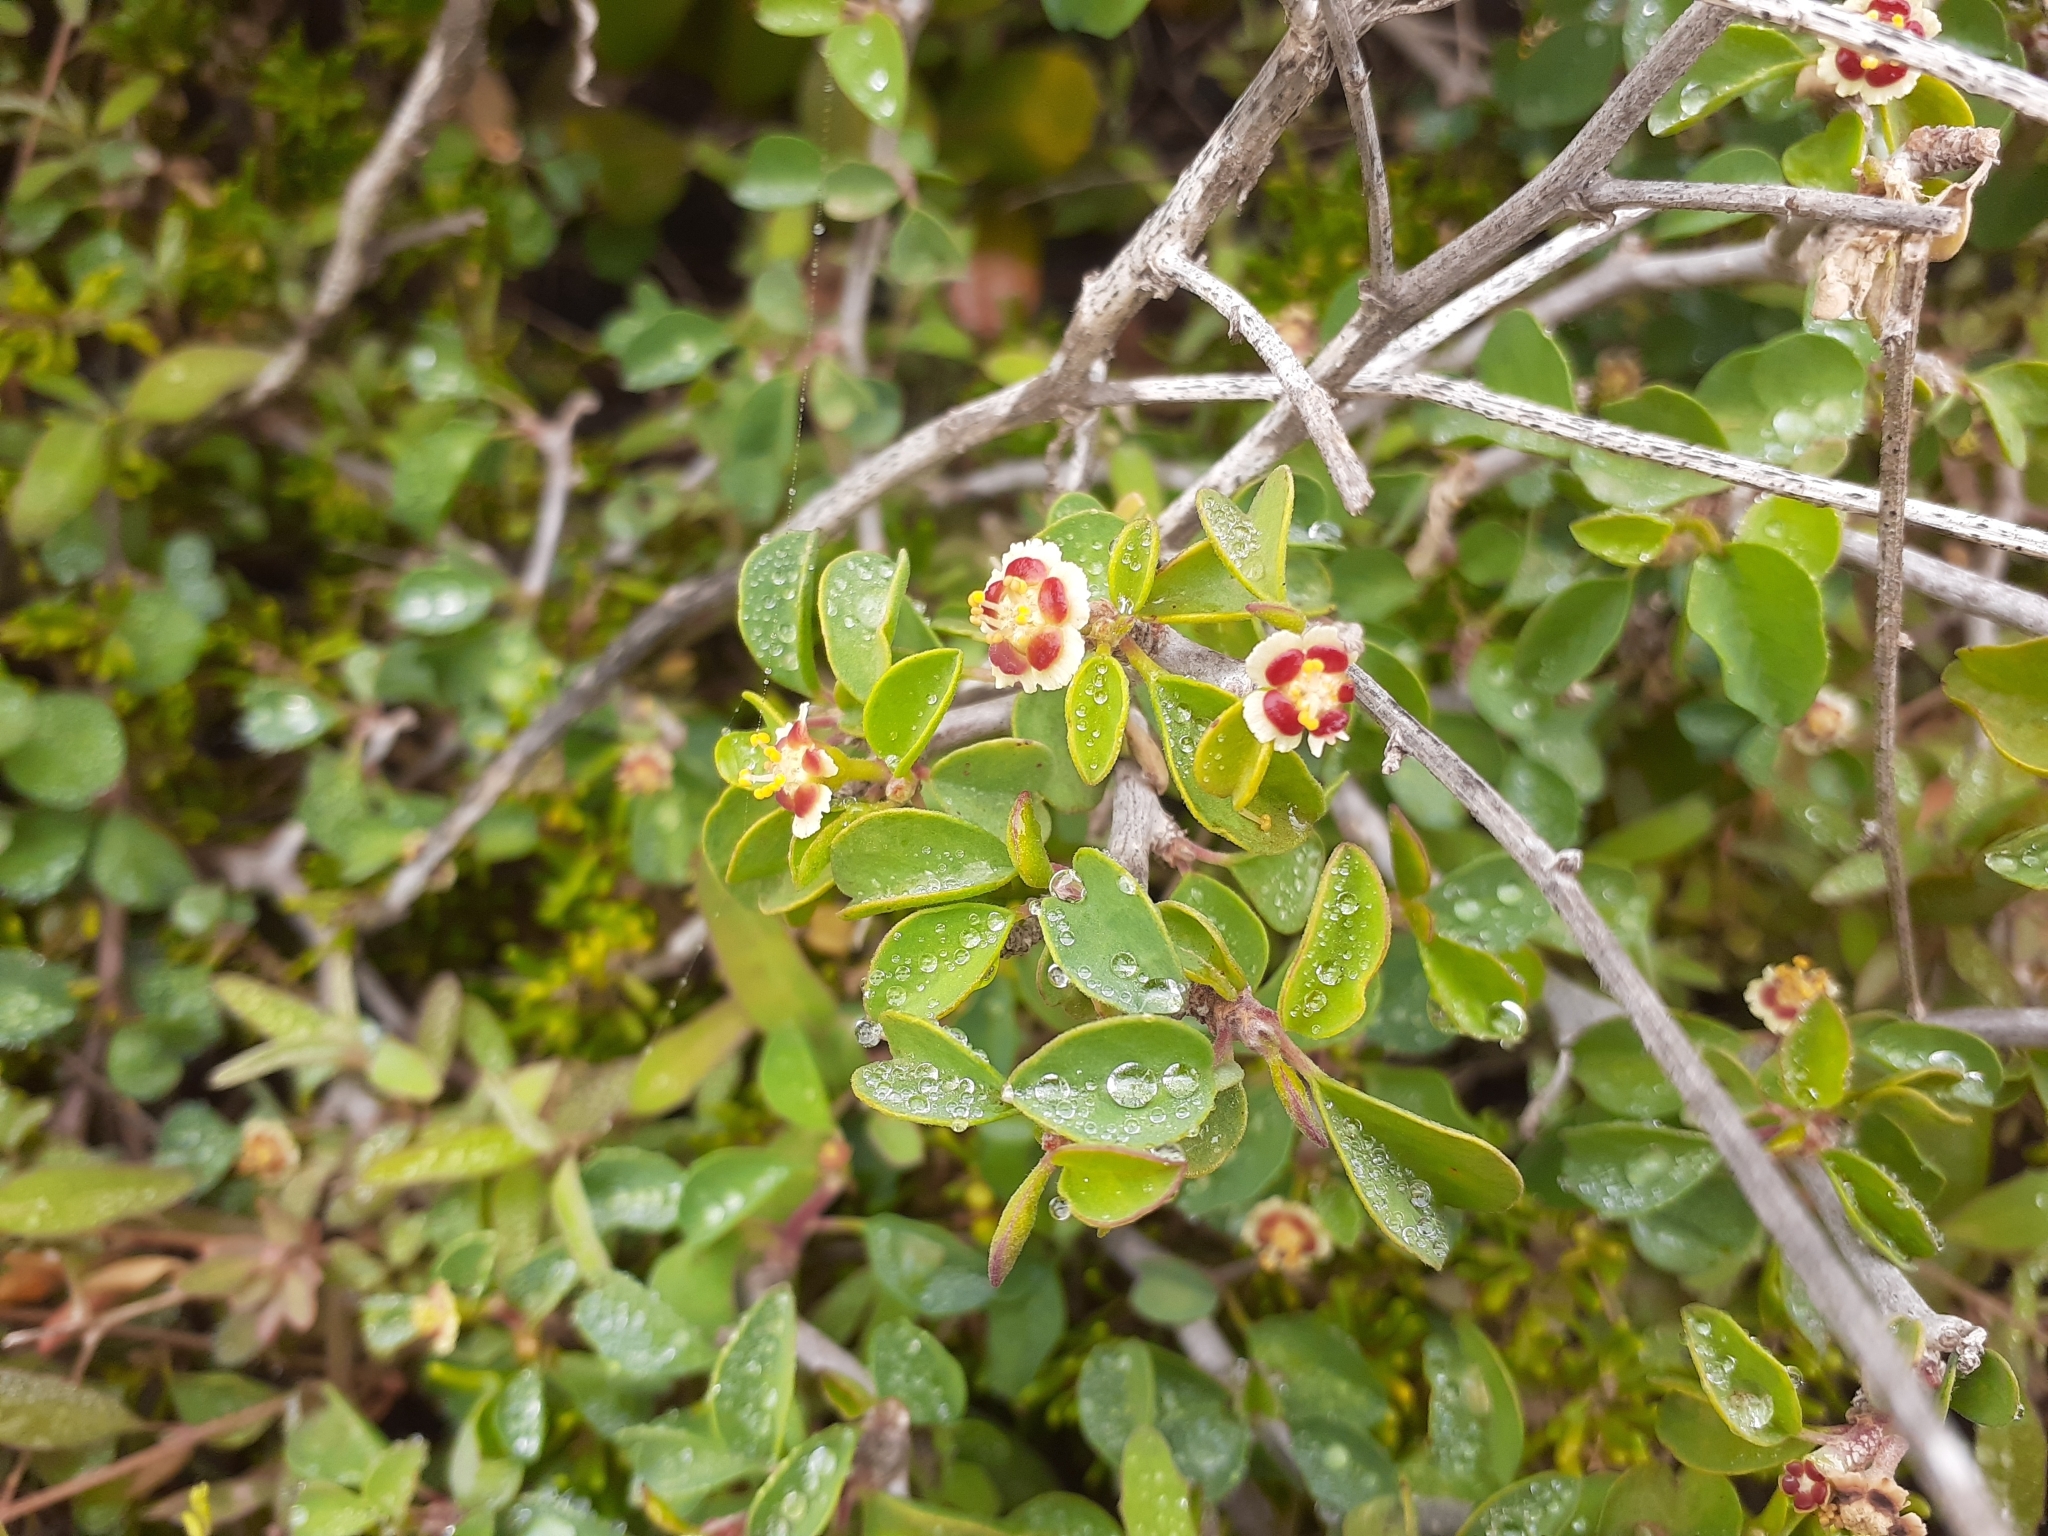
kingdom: Plantae
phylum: Tracheophyta
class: Magnoliopsida
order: Malpighiales
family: Euphorbiaceae
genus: Euphorbia
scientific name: Euphorbia misera
